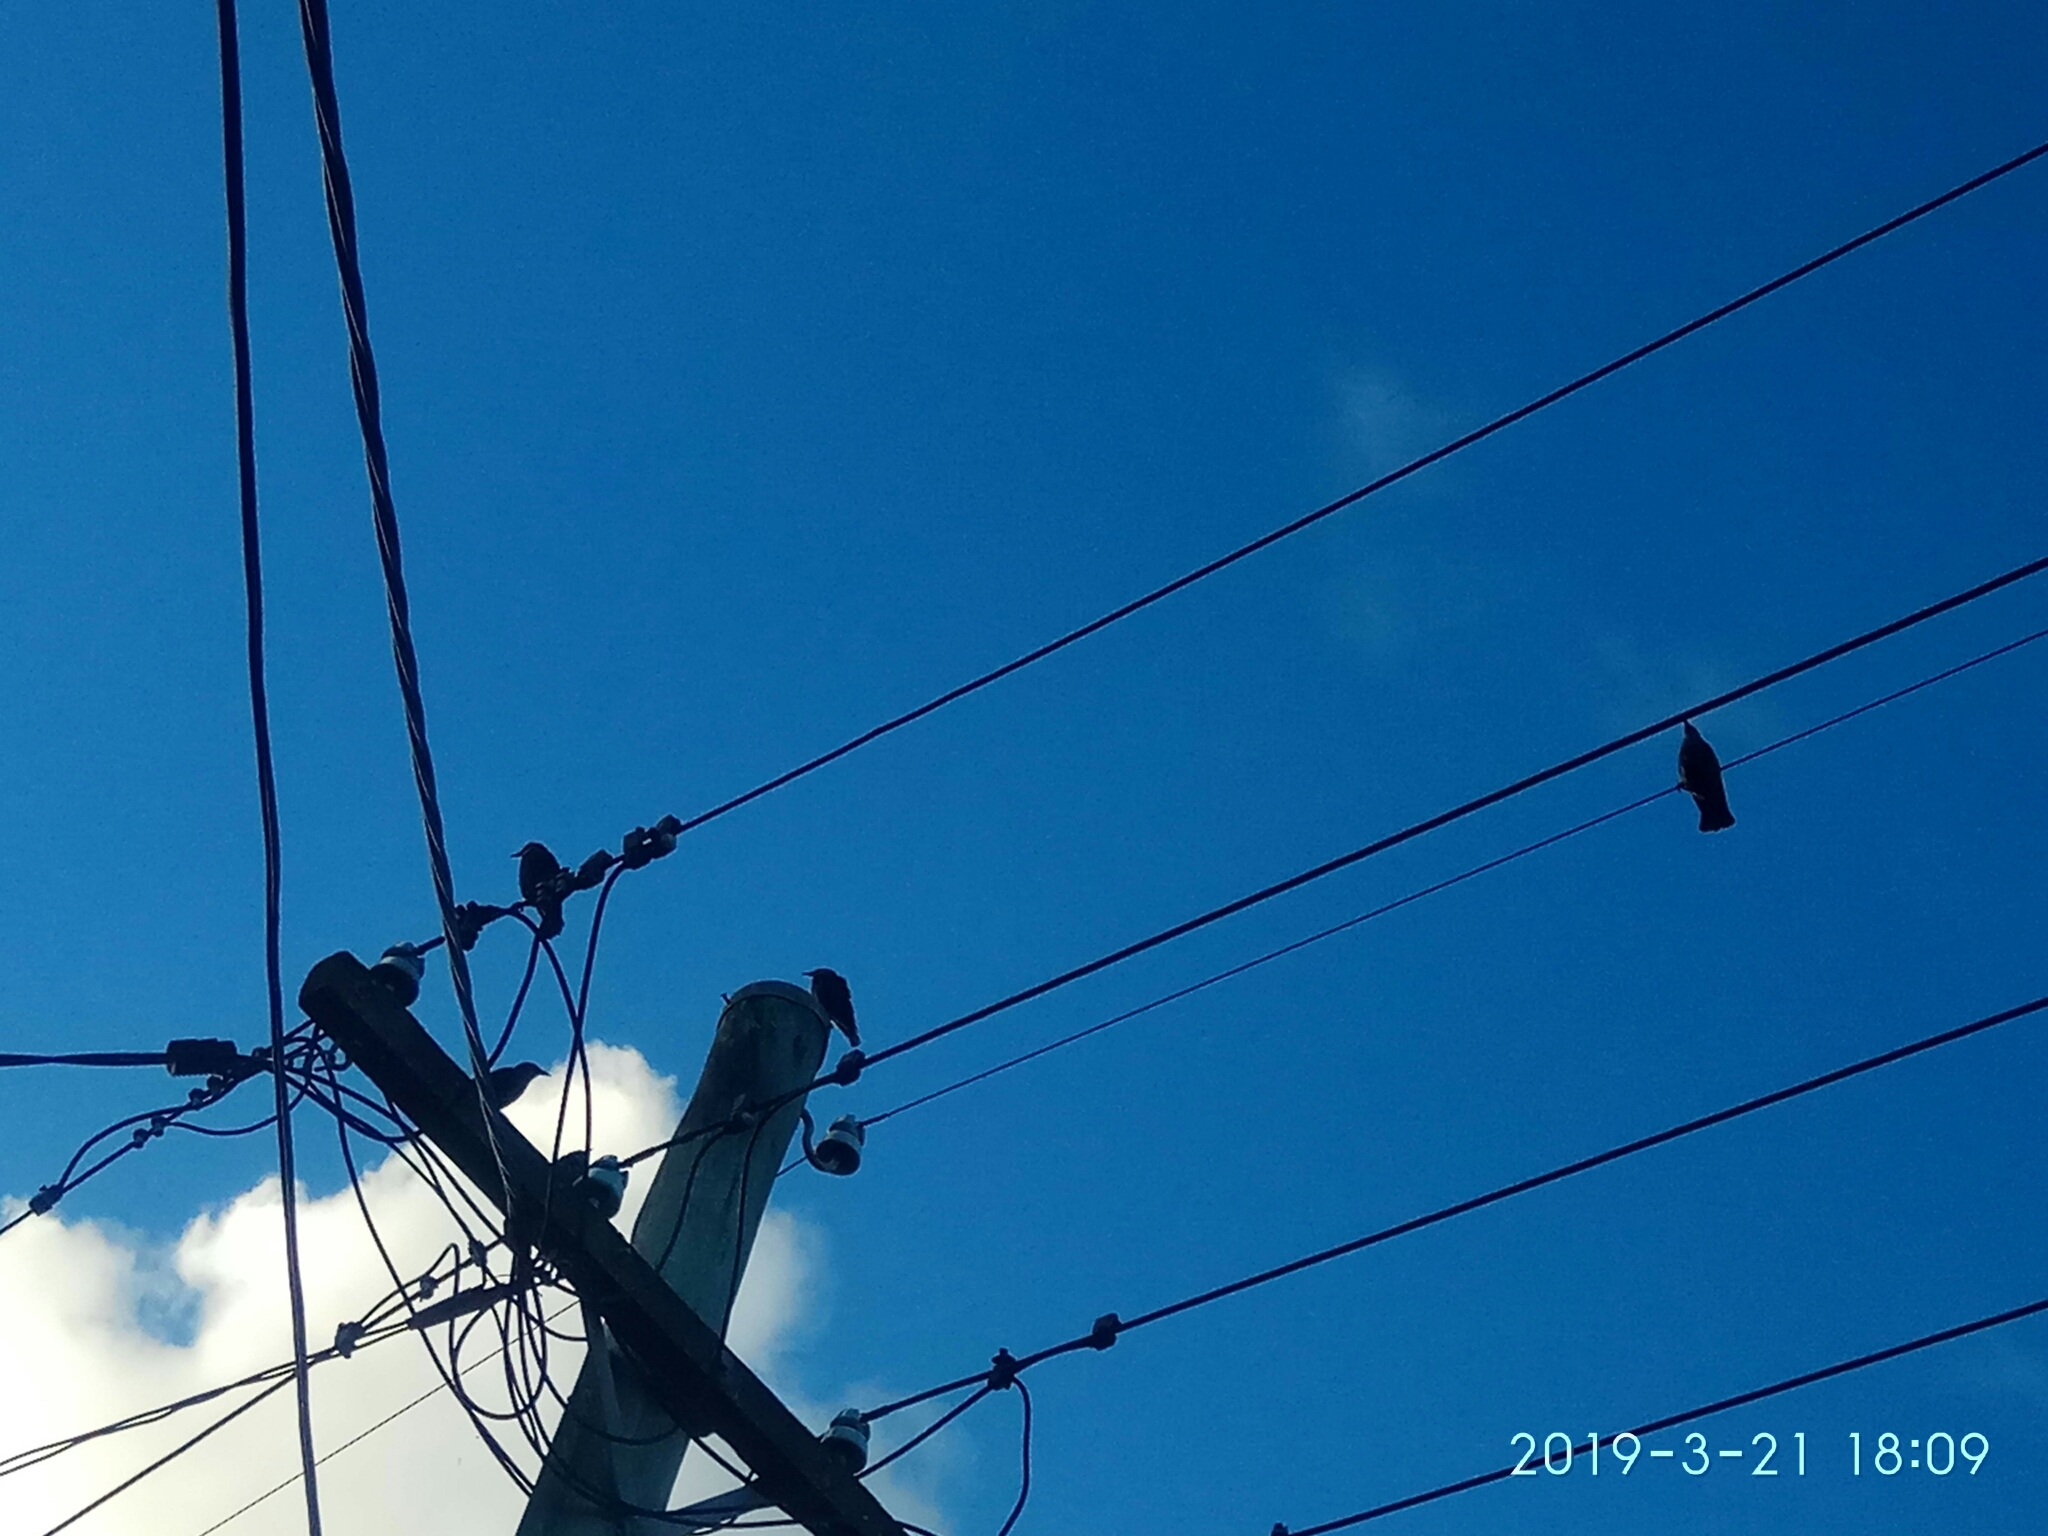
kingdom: Animalia
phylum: Chordata
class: Aves
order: Passeriformes
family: Sturnidae
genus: Sturnus
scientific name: Sturnus vulgaris
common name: Common starling
